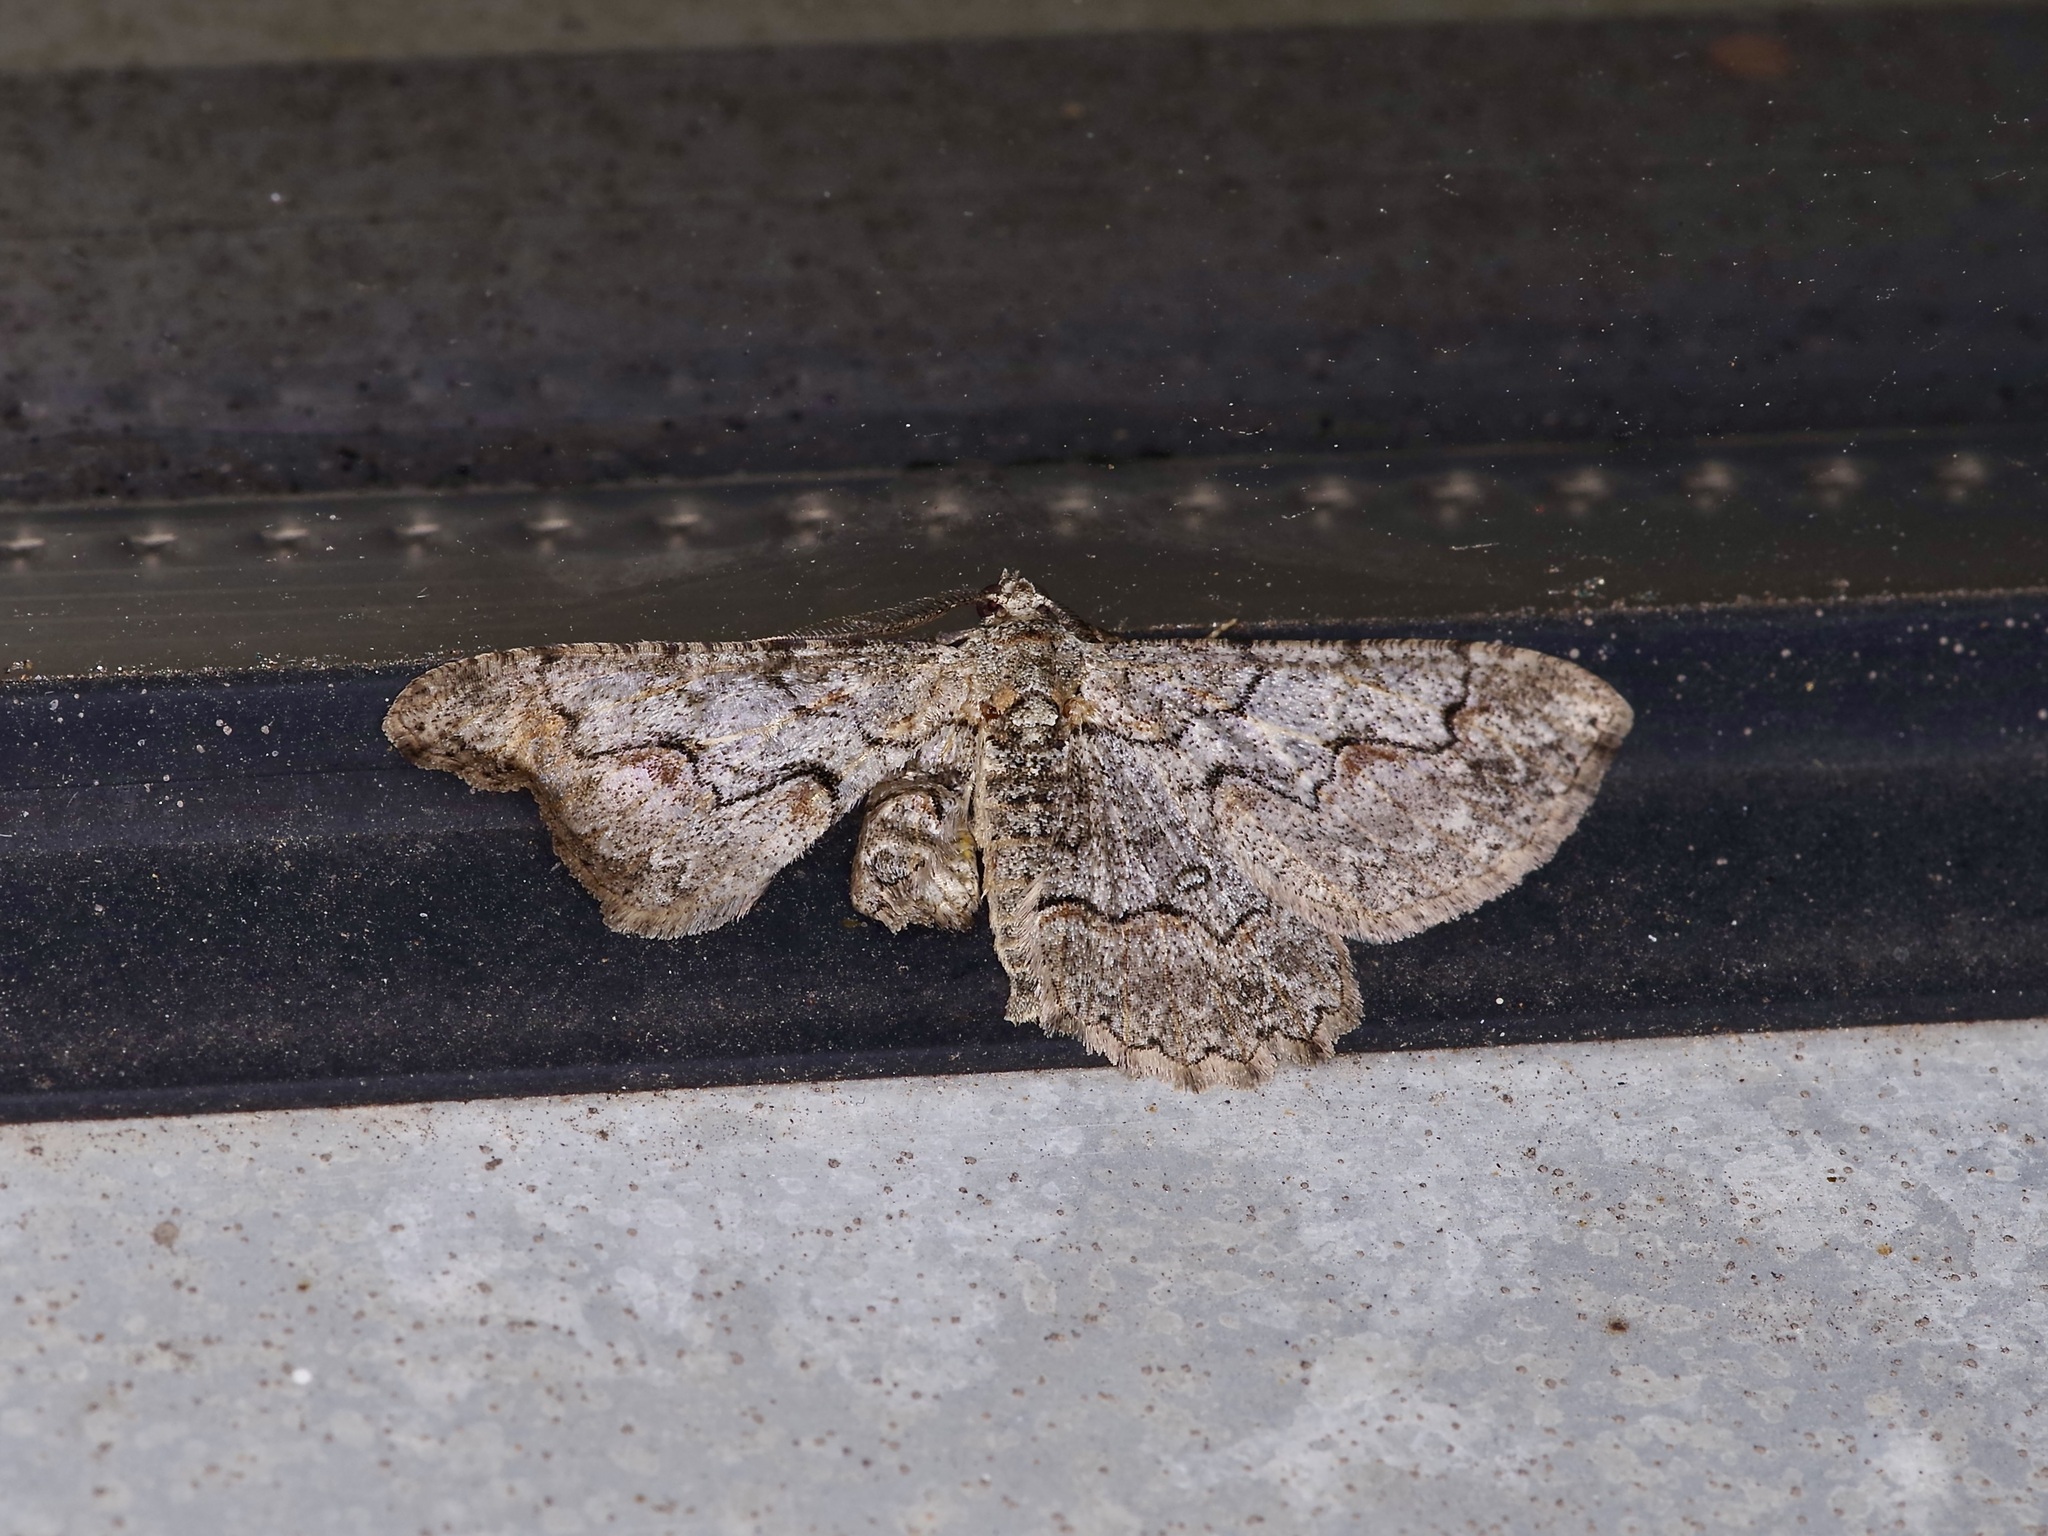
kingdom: Animalia
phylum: Arthropoda
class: Insecta
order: Lepidoptera
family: Geometridae
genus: Iridopsis
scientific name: Iridopsis defectaria
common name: Brown-shaded gray
